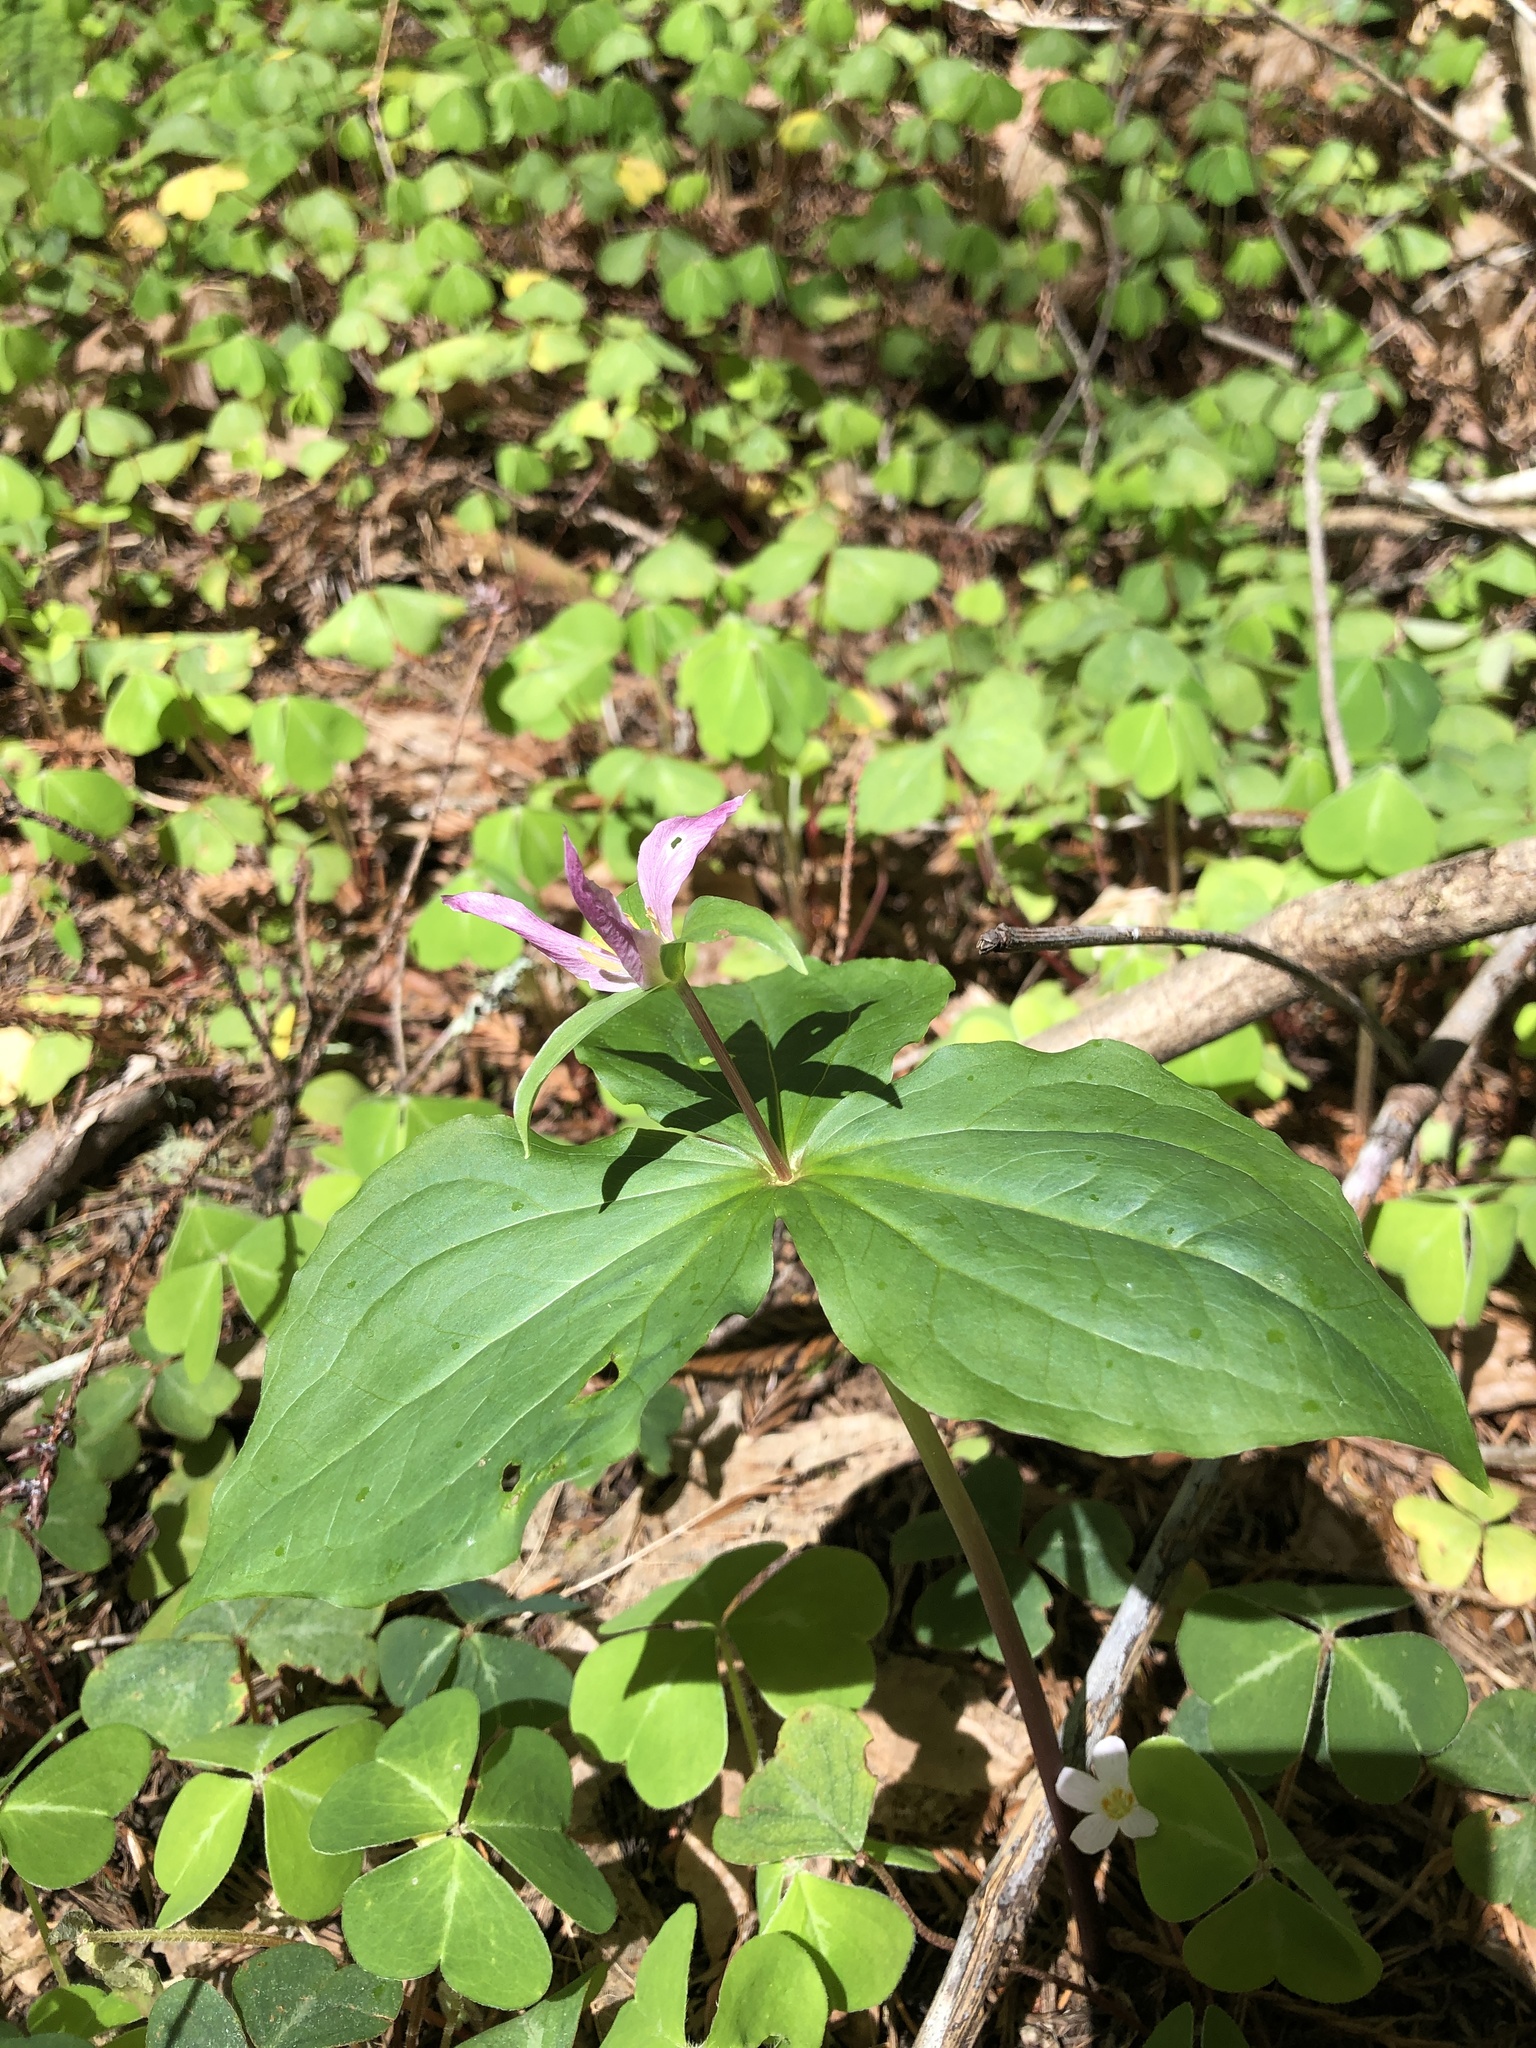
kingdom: Plantae
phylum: Tracheophyta
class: Liliopsida
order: Liliales
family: Melanthiaceae
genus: Trillium
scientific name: Trillium ovatum
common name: Pacific trillium
